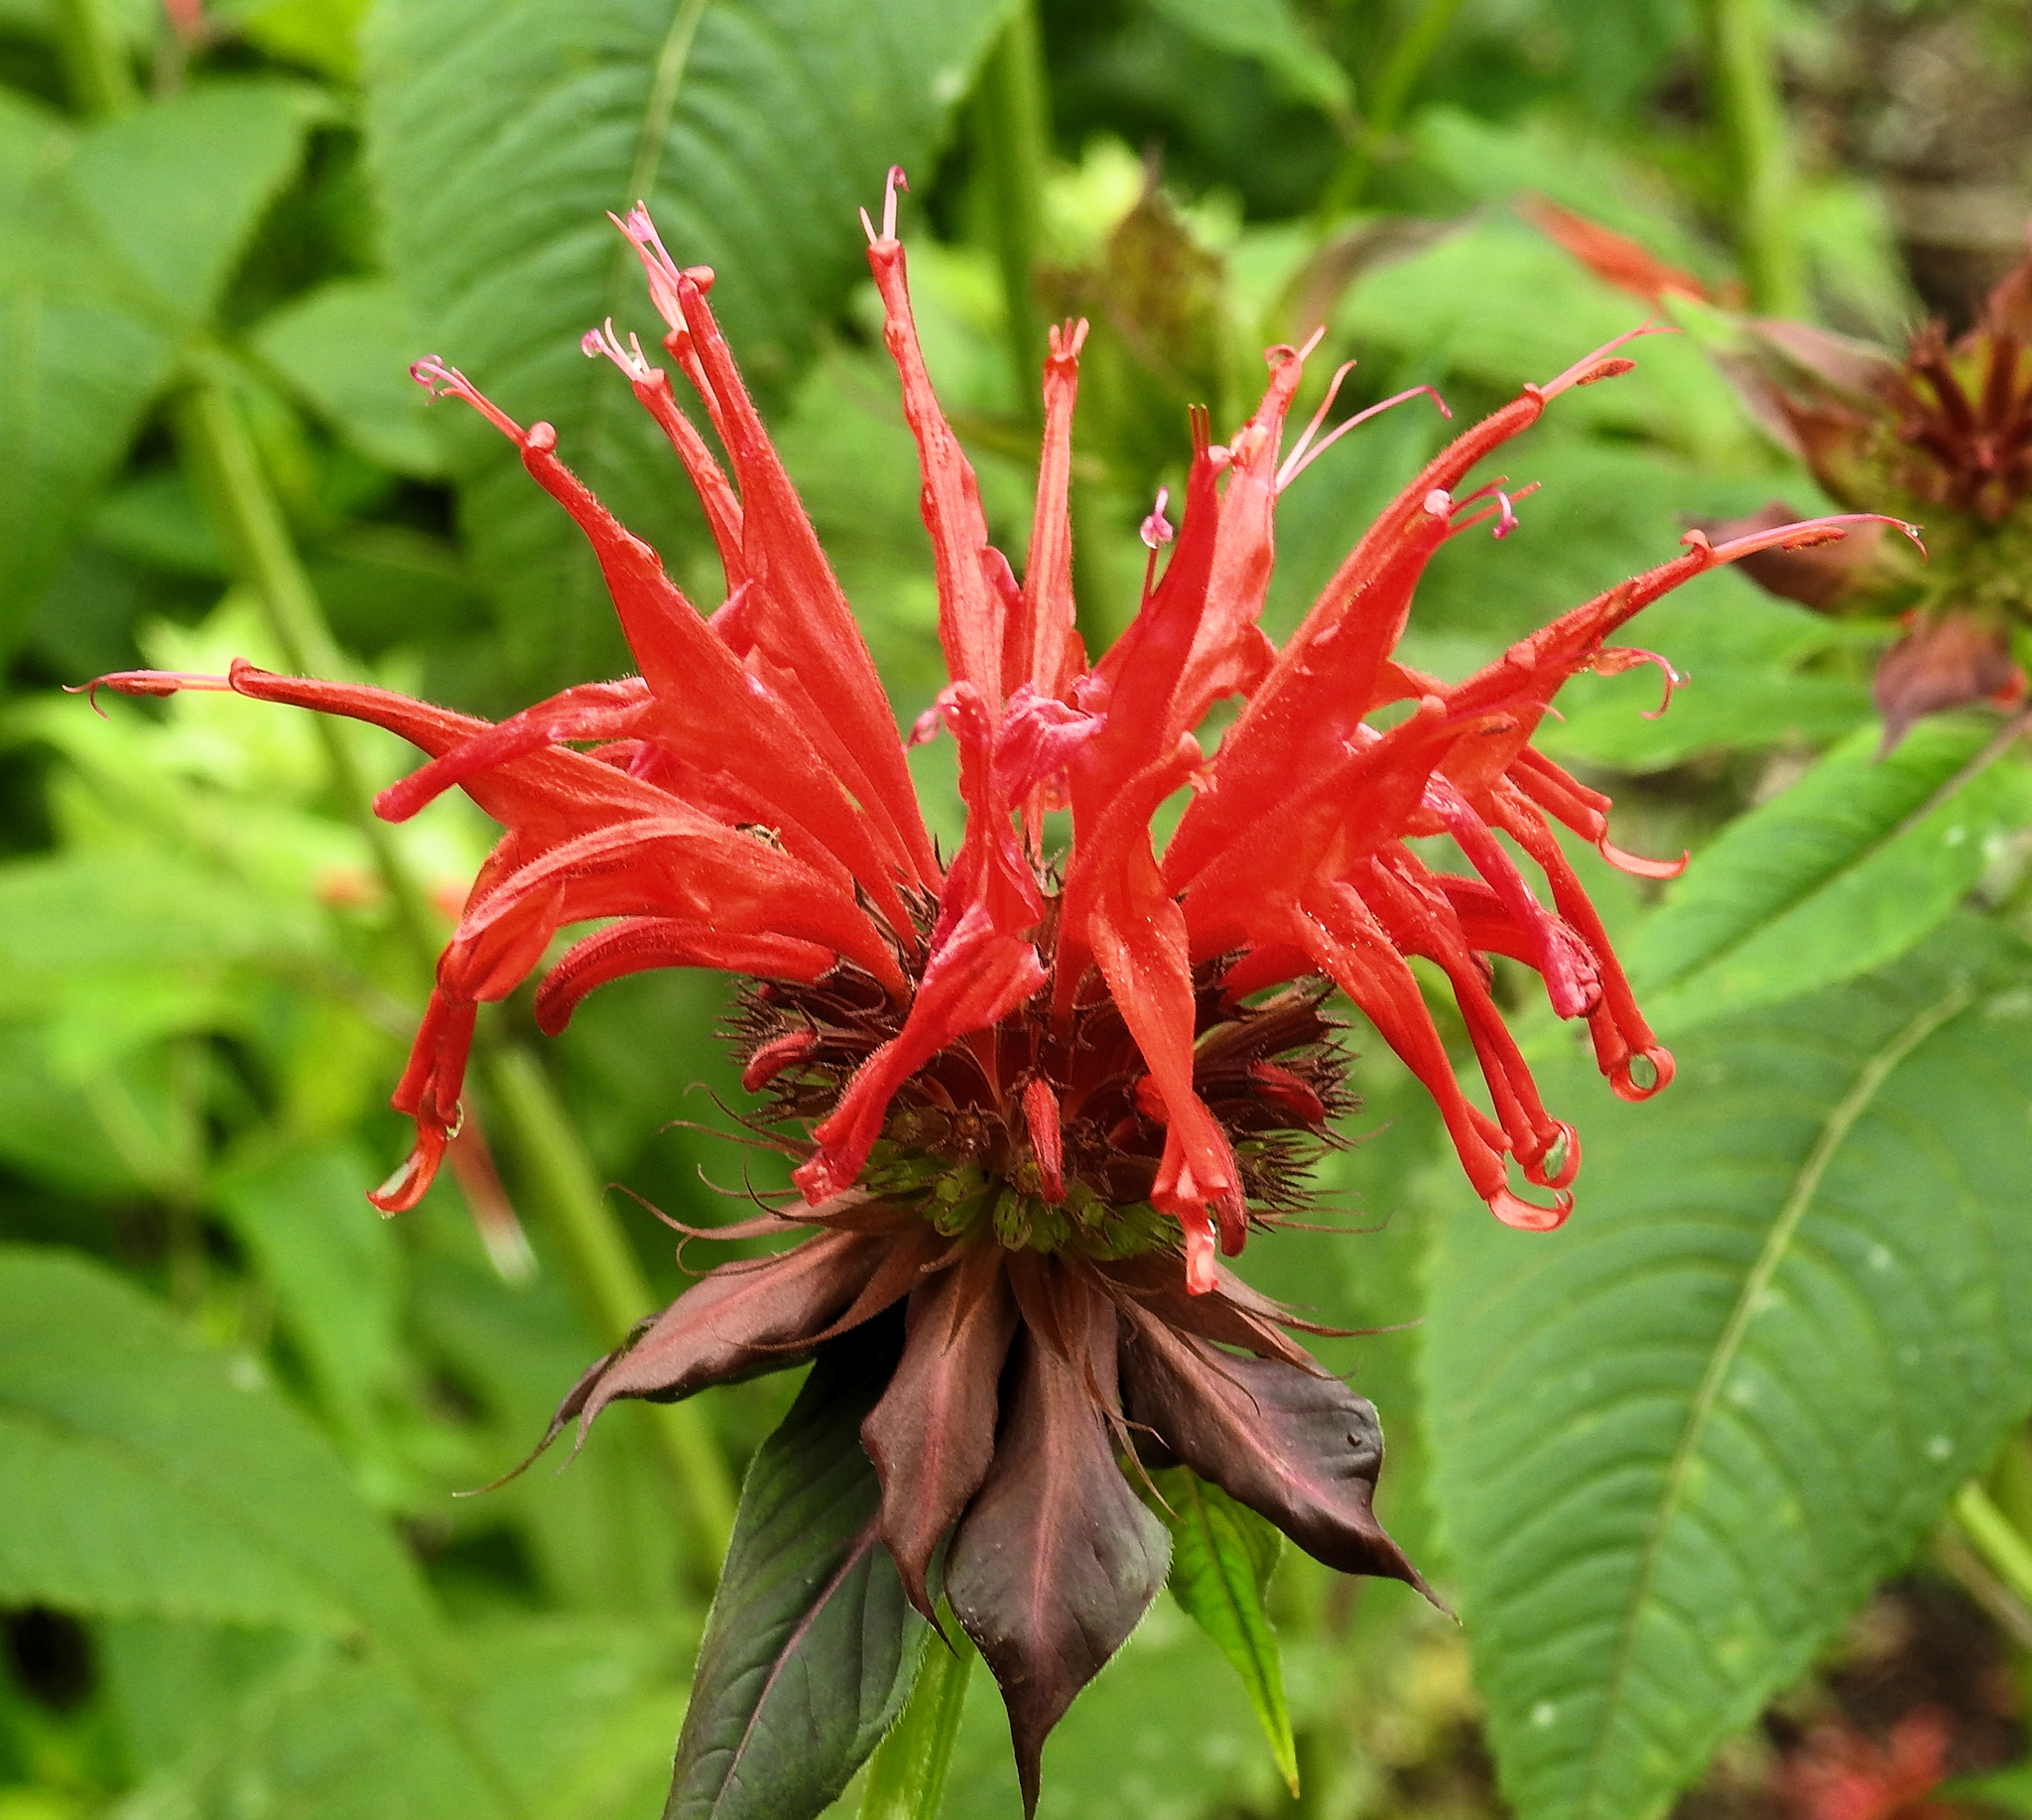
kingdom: Plantae
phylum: Tracheophyta
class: Magnoliopsida
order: Lamiales
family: Lamiaceae
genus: Monarda
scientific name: Monarda didyma
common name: Beebalm
